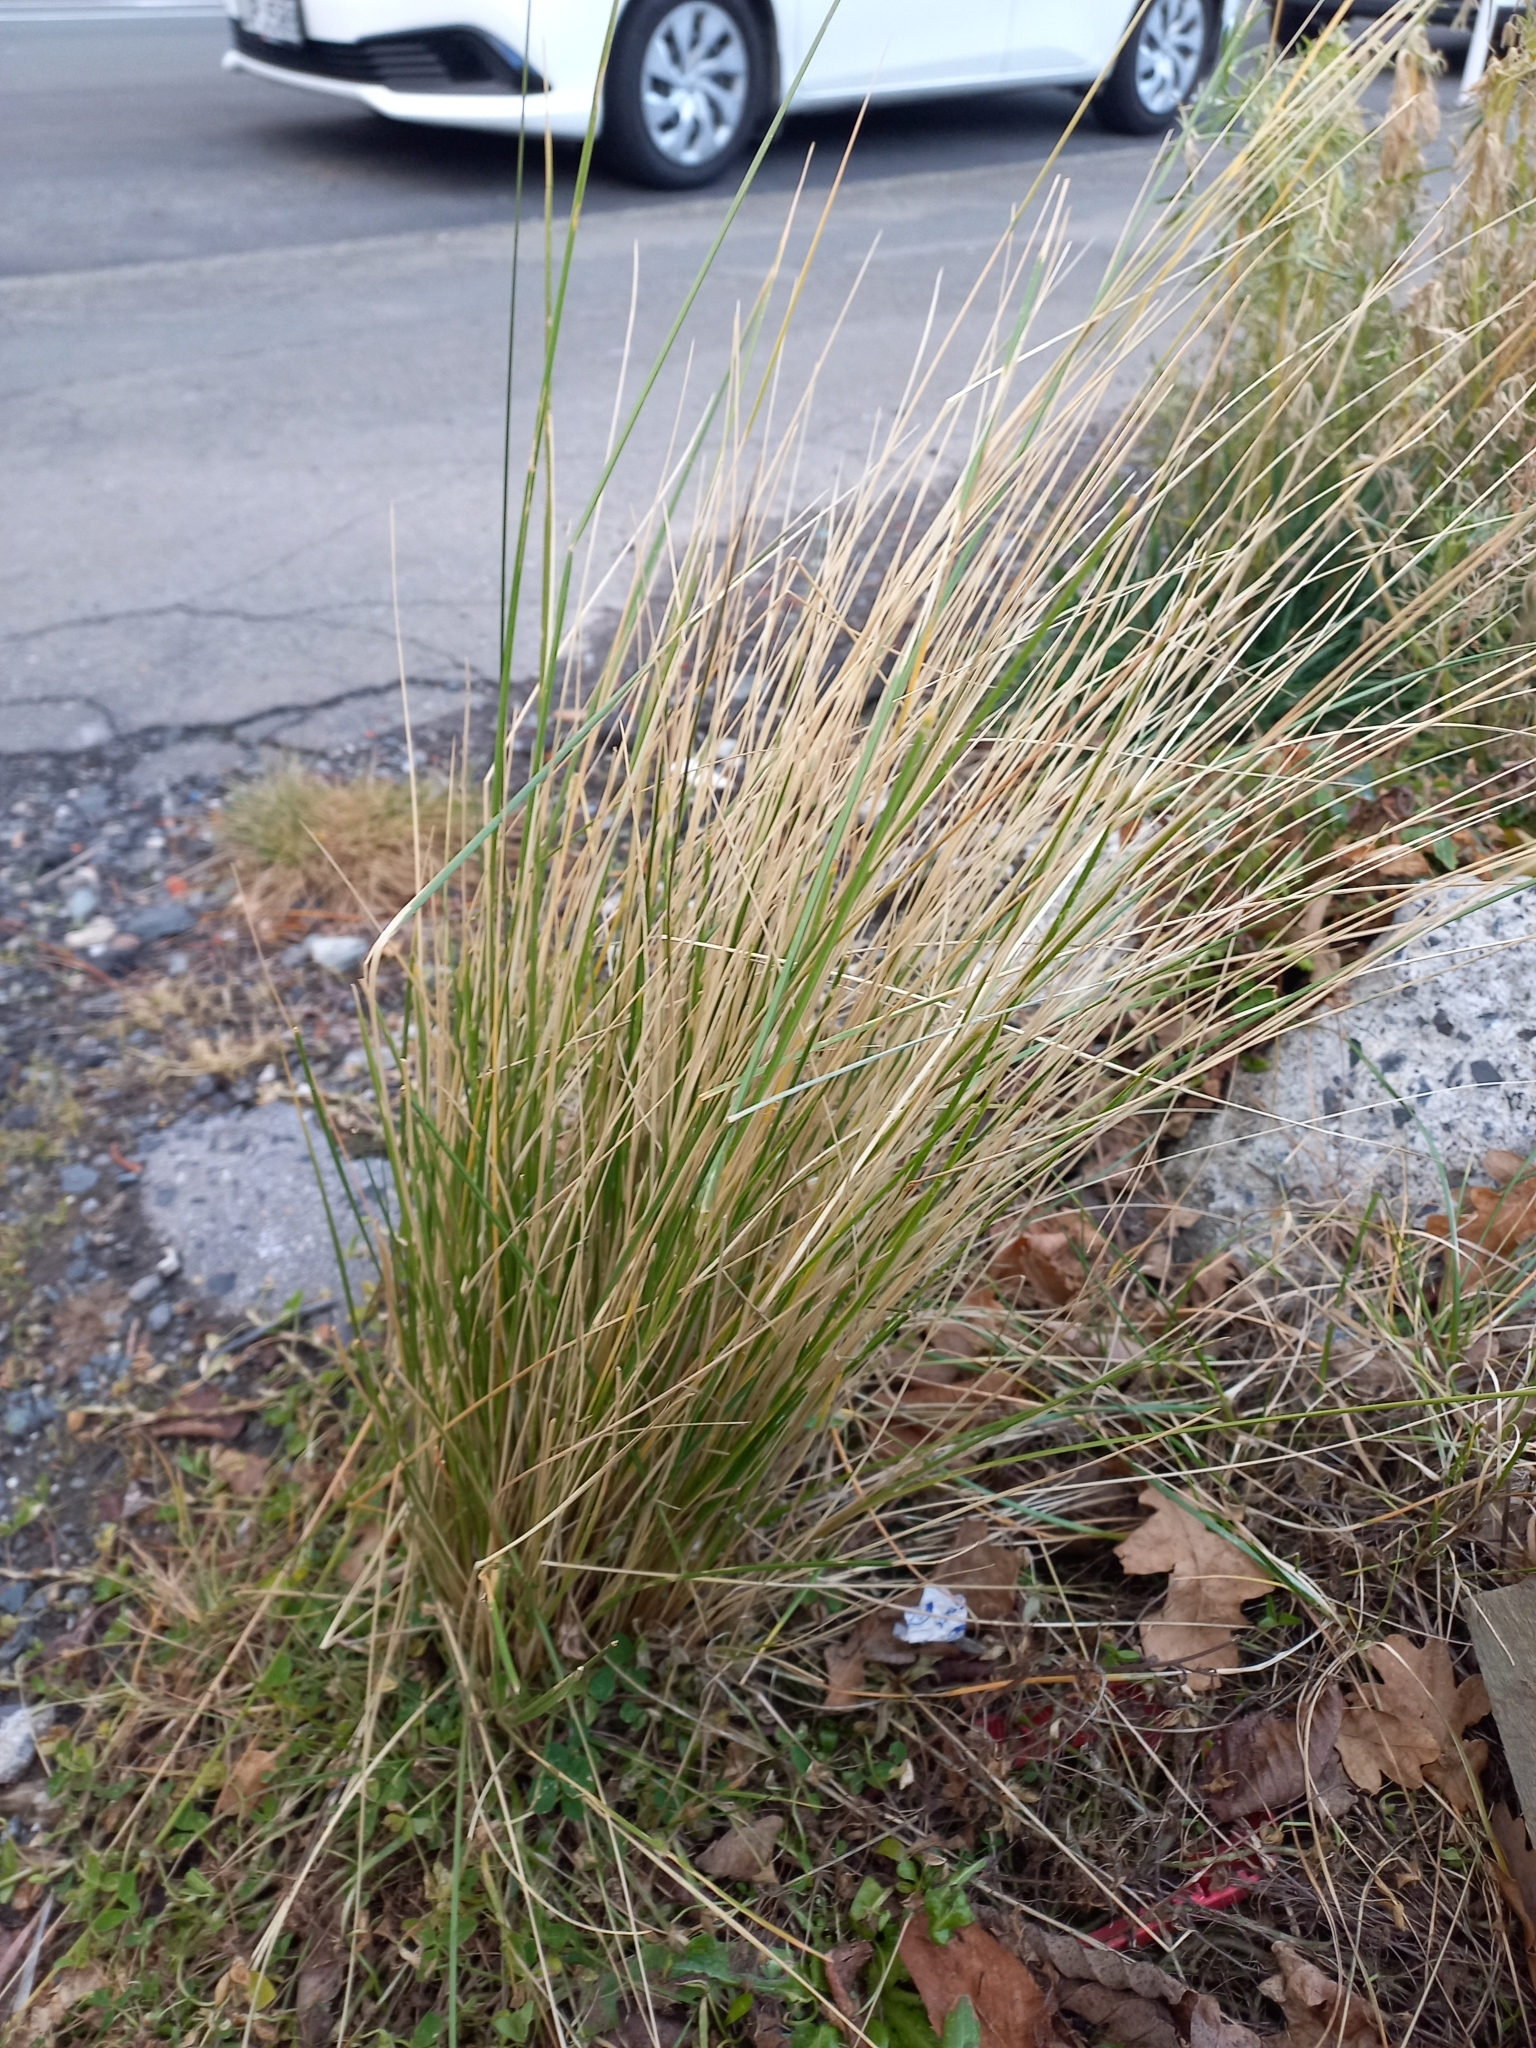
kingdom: Plantae
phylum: Tracheophyta
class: Liliopsida
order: Poales
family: Poaceae
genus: Poa
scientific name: Poa cita
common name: Silver tussock
